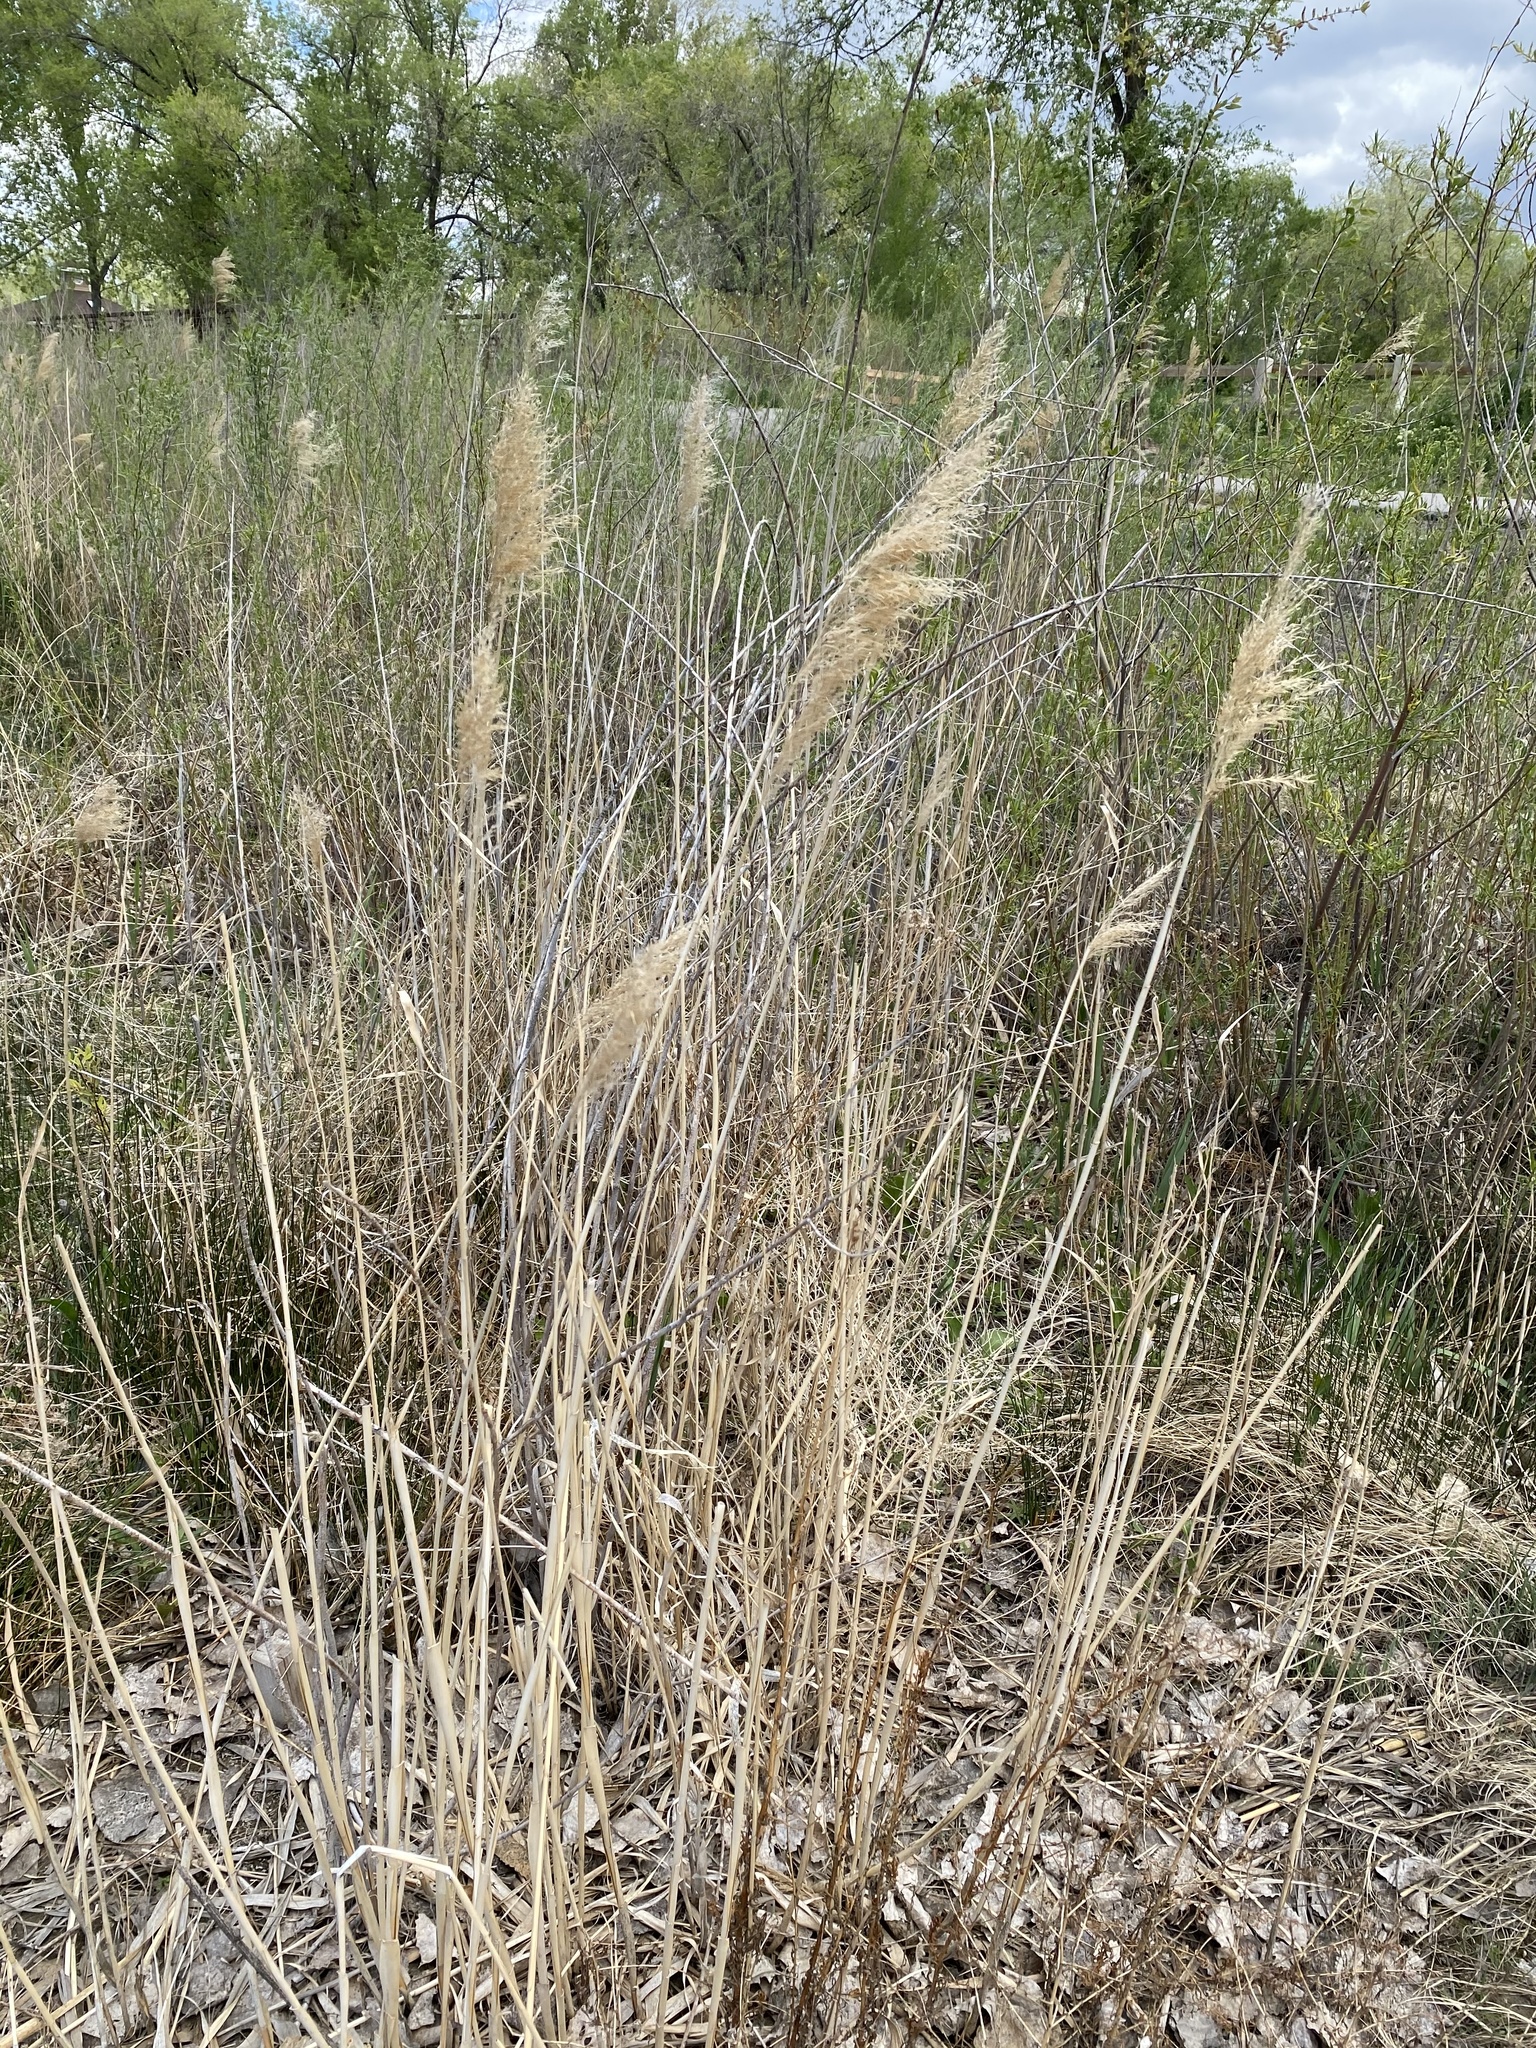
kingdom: Plantae
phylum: Tracheophyta
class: Liliopsida
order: Poales
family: Poaceae
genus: Phragmites
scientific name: Phragmites australis
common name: Common reed
